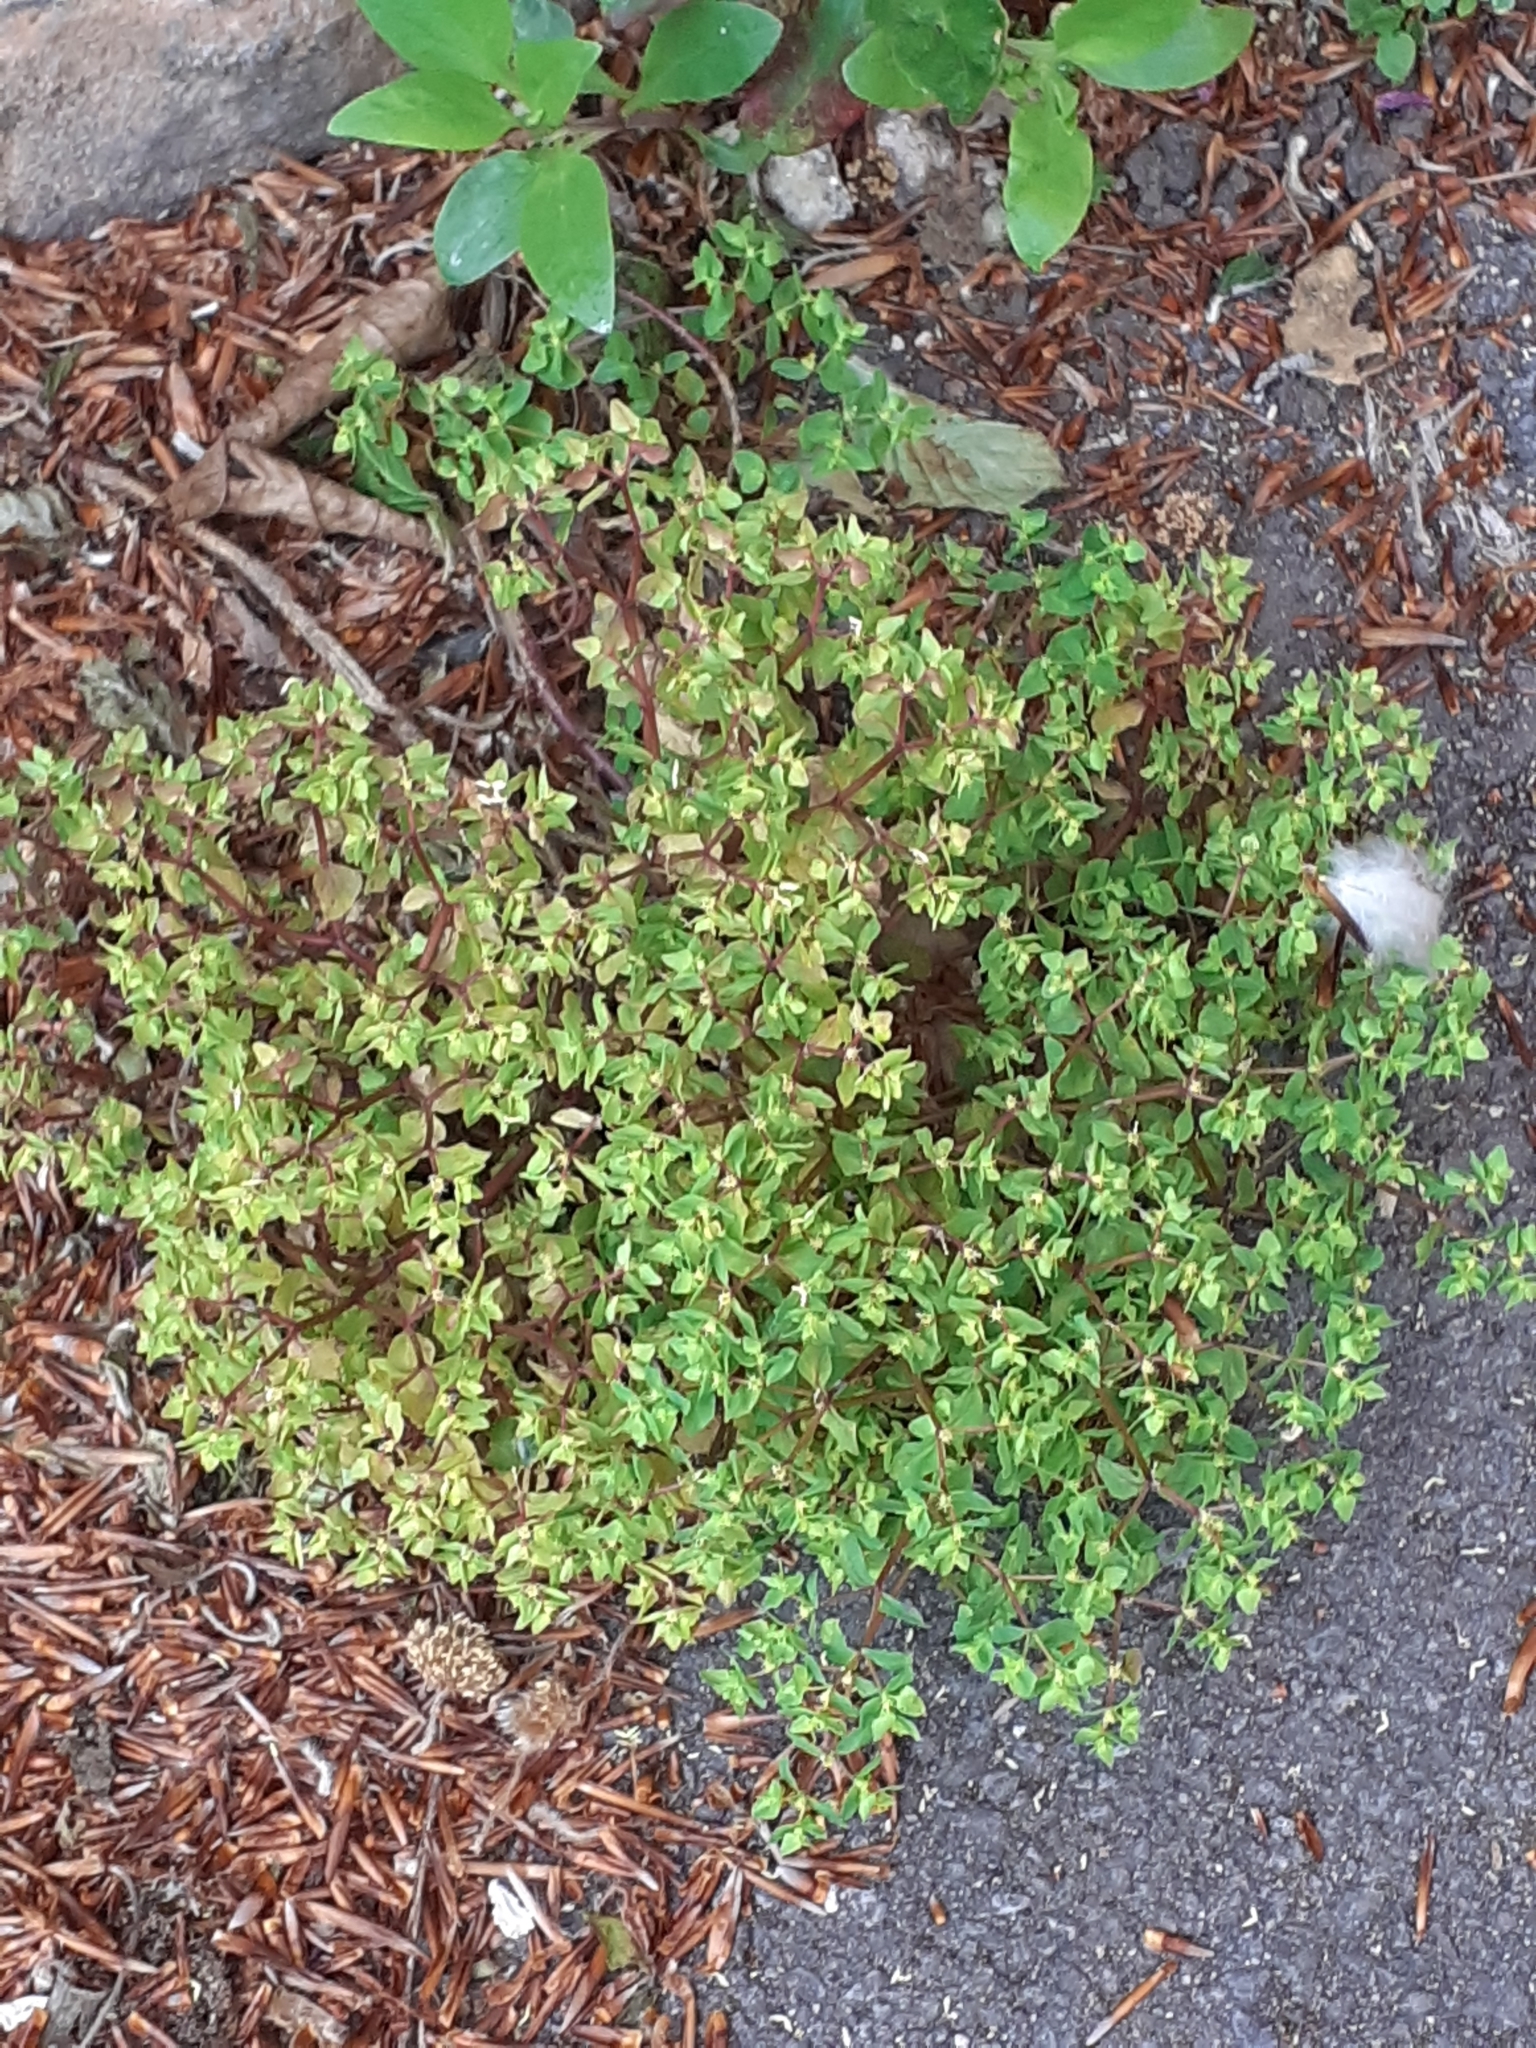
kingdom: Plantae
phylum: Tracheophyta
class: Magnoliopsida
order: Malpighiales
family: Euphorbiaceae
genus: Euphorbia
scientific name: Euphorbia peplus
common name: Petty spurge
